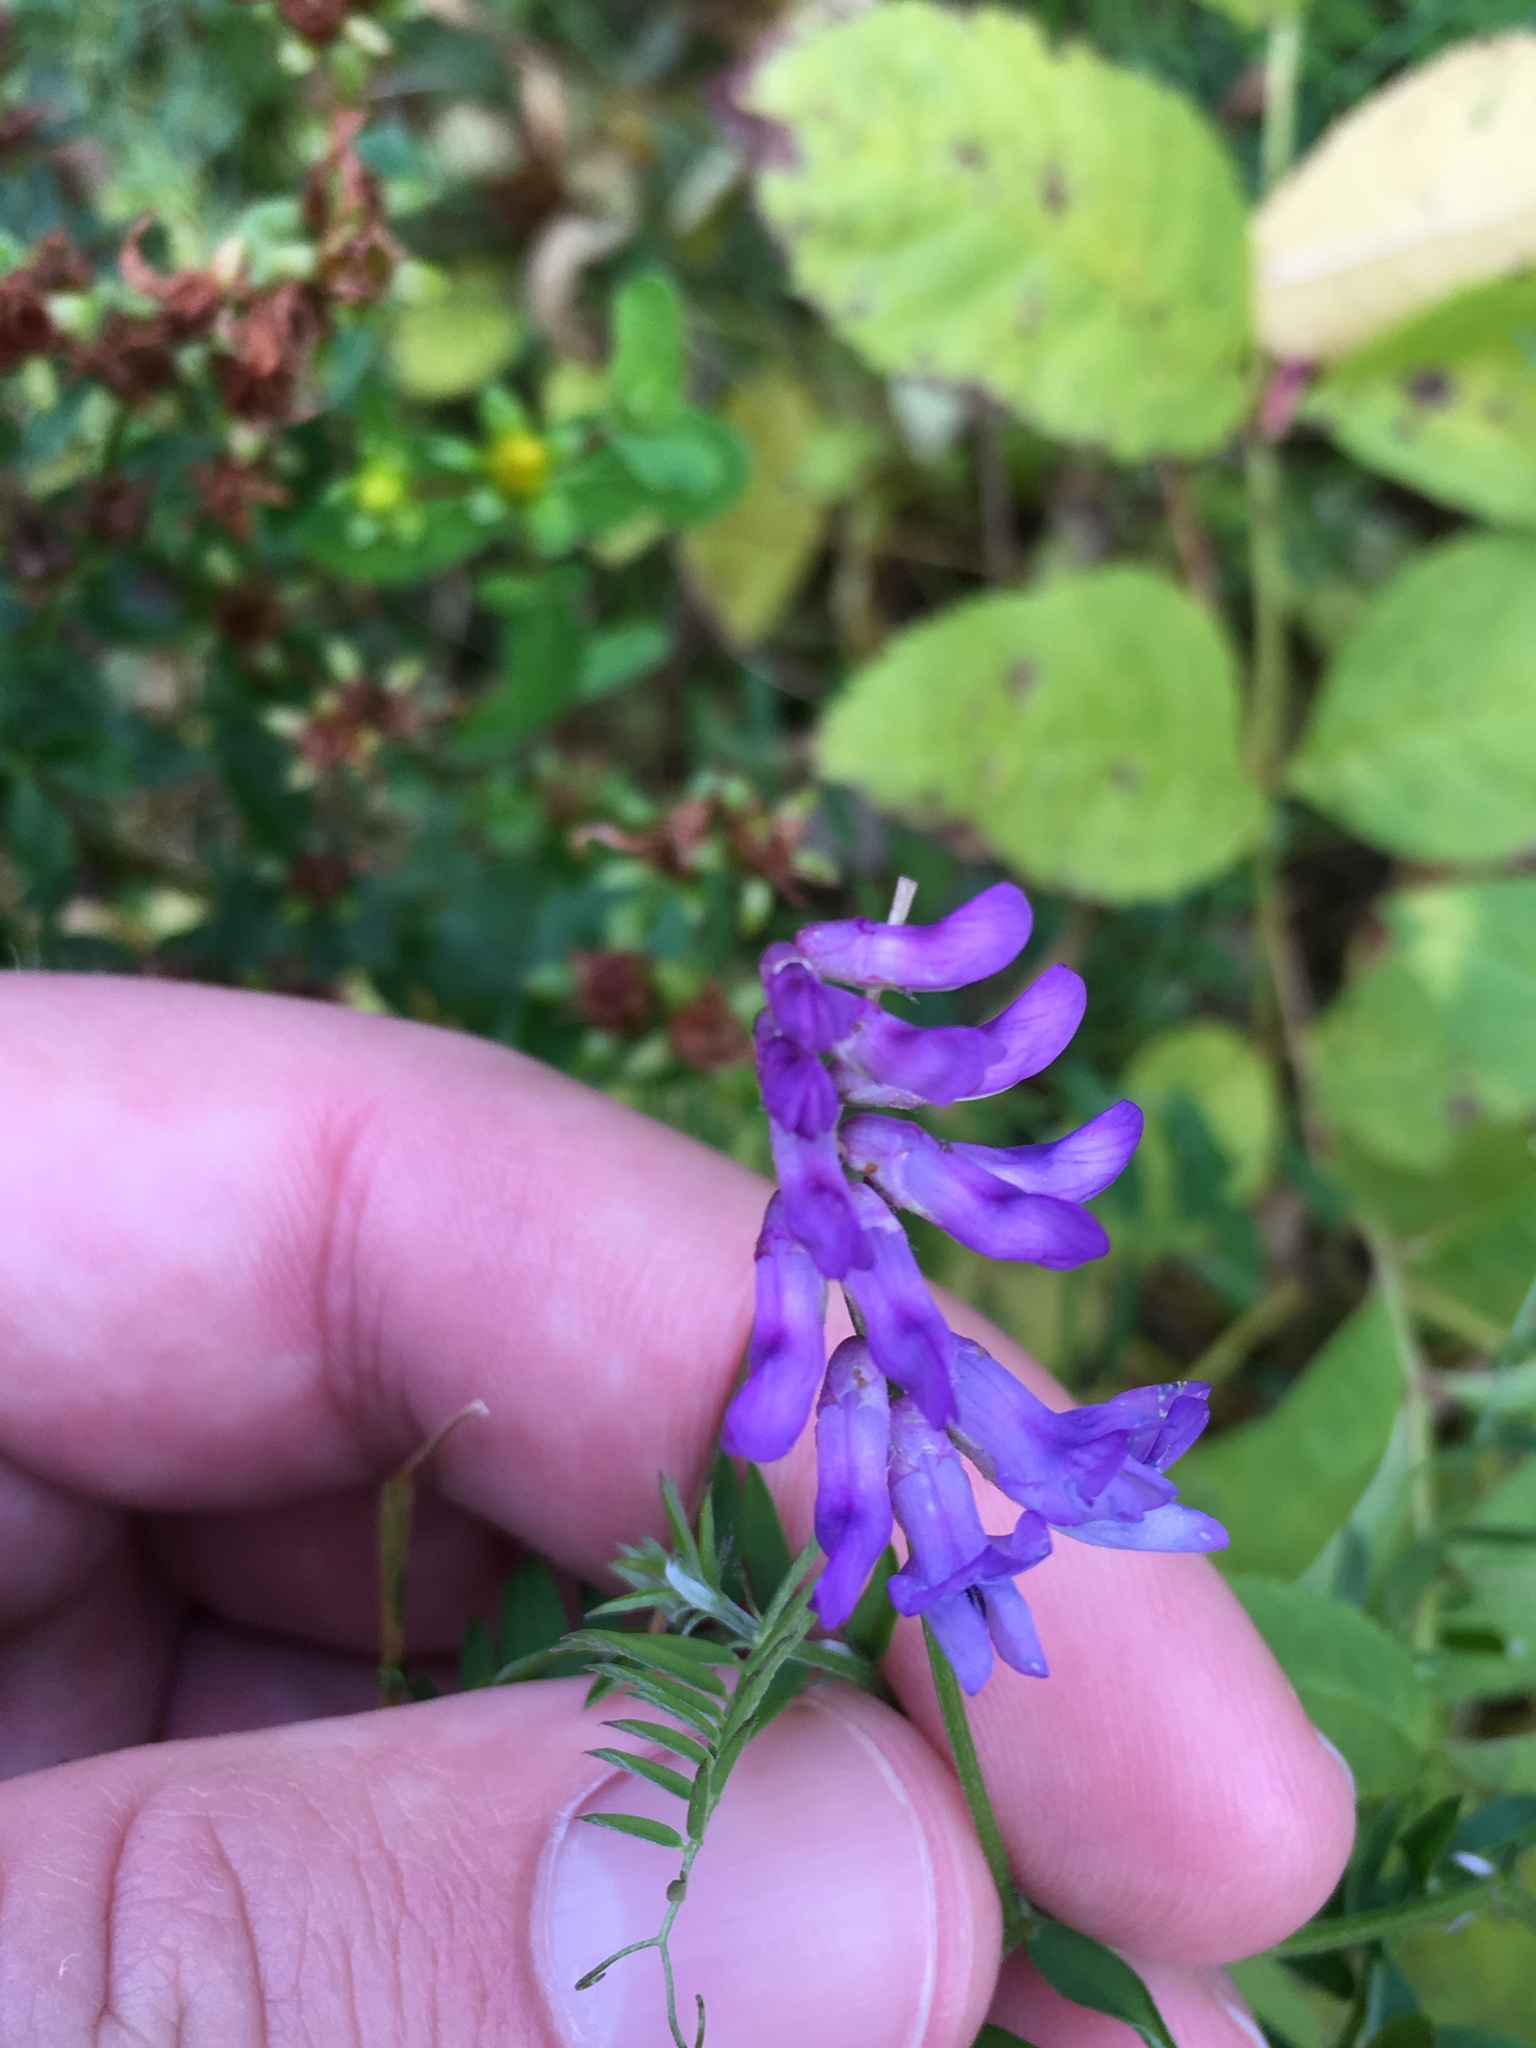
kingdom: Plantae
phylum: Tracheophyta
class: Magnoliopsida
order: Fabales
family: Fabaceae
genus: Vicia
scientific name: Vicia cracca
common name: Bird vetch
